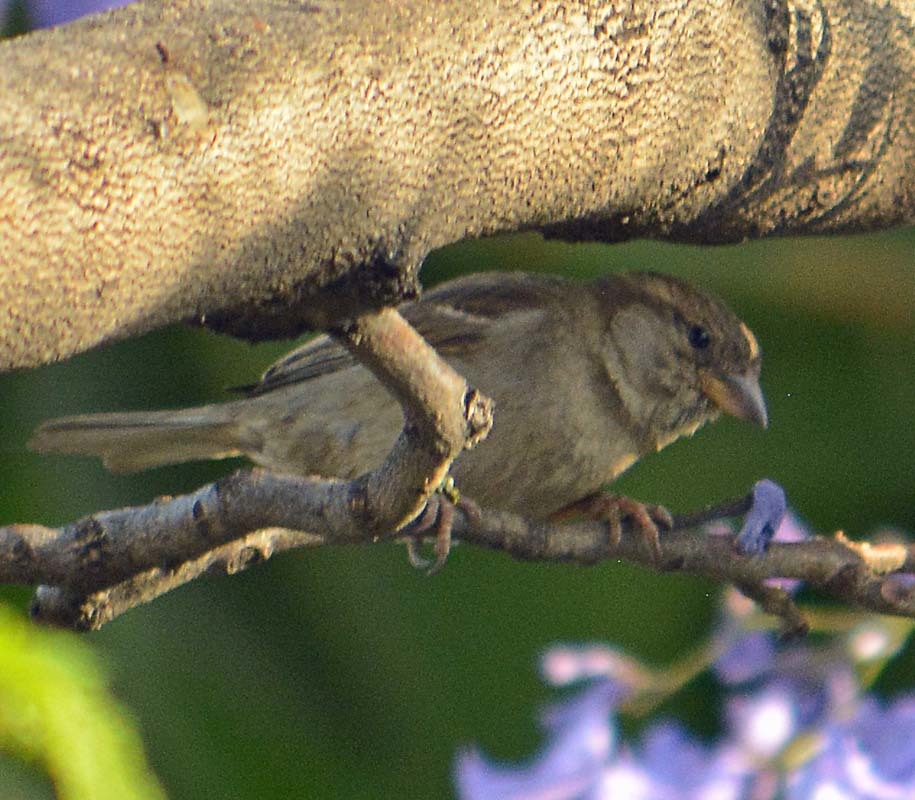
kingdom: Animalia
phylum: Chordata
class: Aves
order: Passeriformes
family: Passeridae
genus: Passer
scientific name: Passer domesticus
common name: House sparrow
